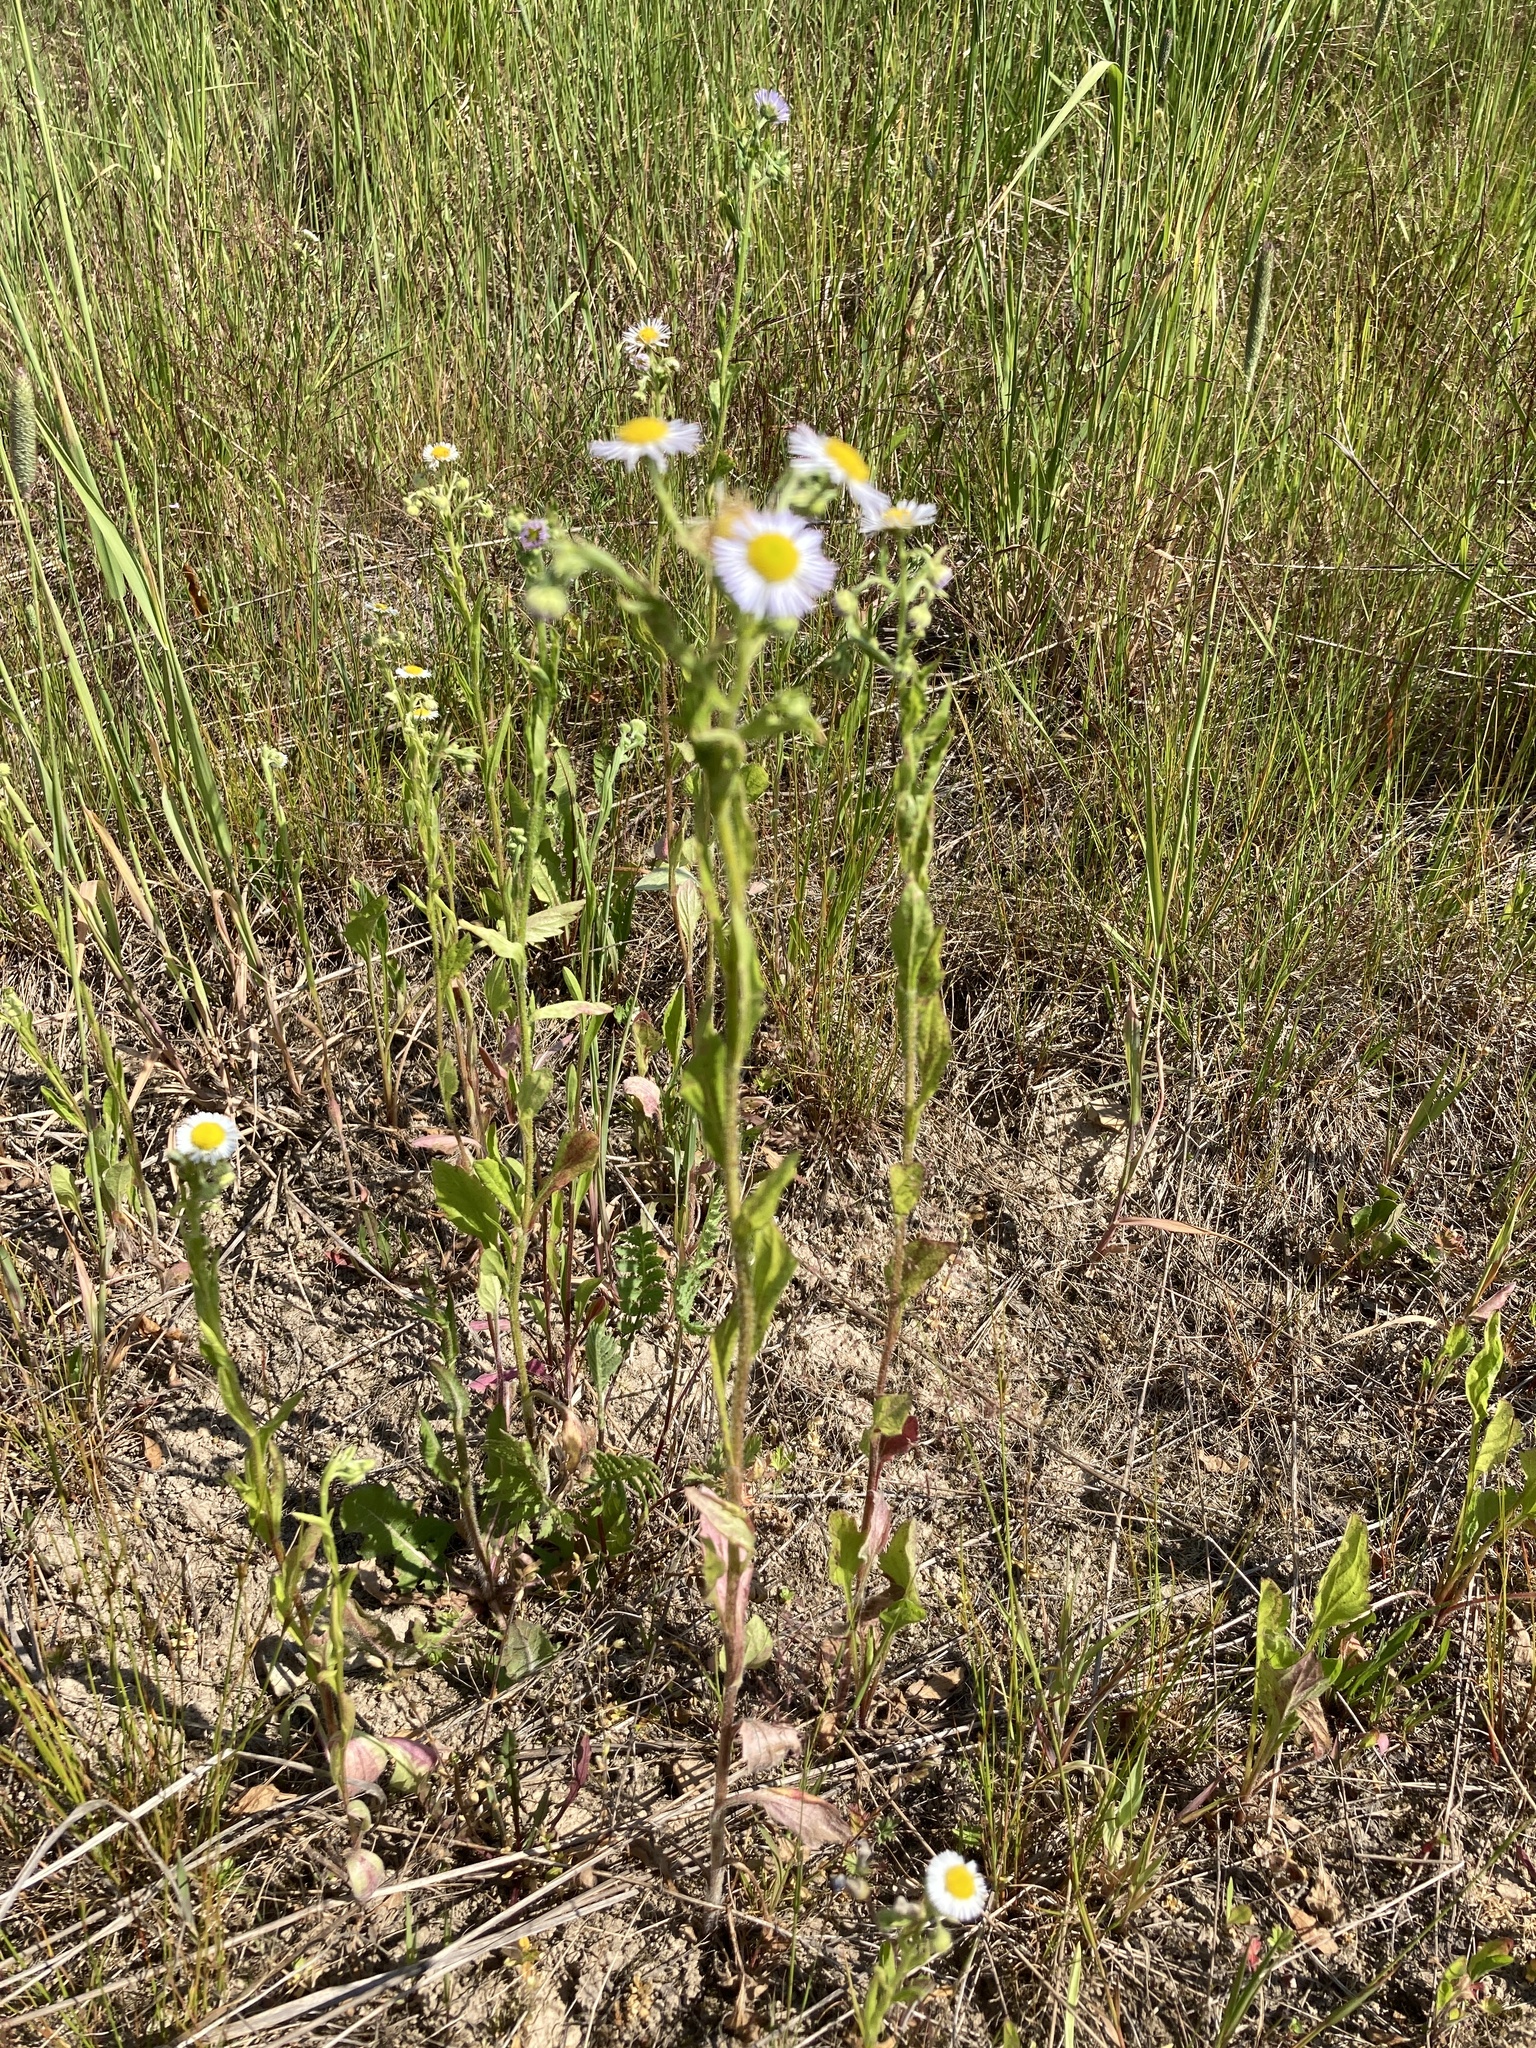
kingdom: Plantae
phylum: Tracheophyta
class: Magnoliopsida
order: Asterales
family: Asteraceae
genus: Erigeron
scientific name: Erigeron annuus
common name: Tall fleabane
